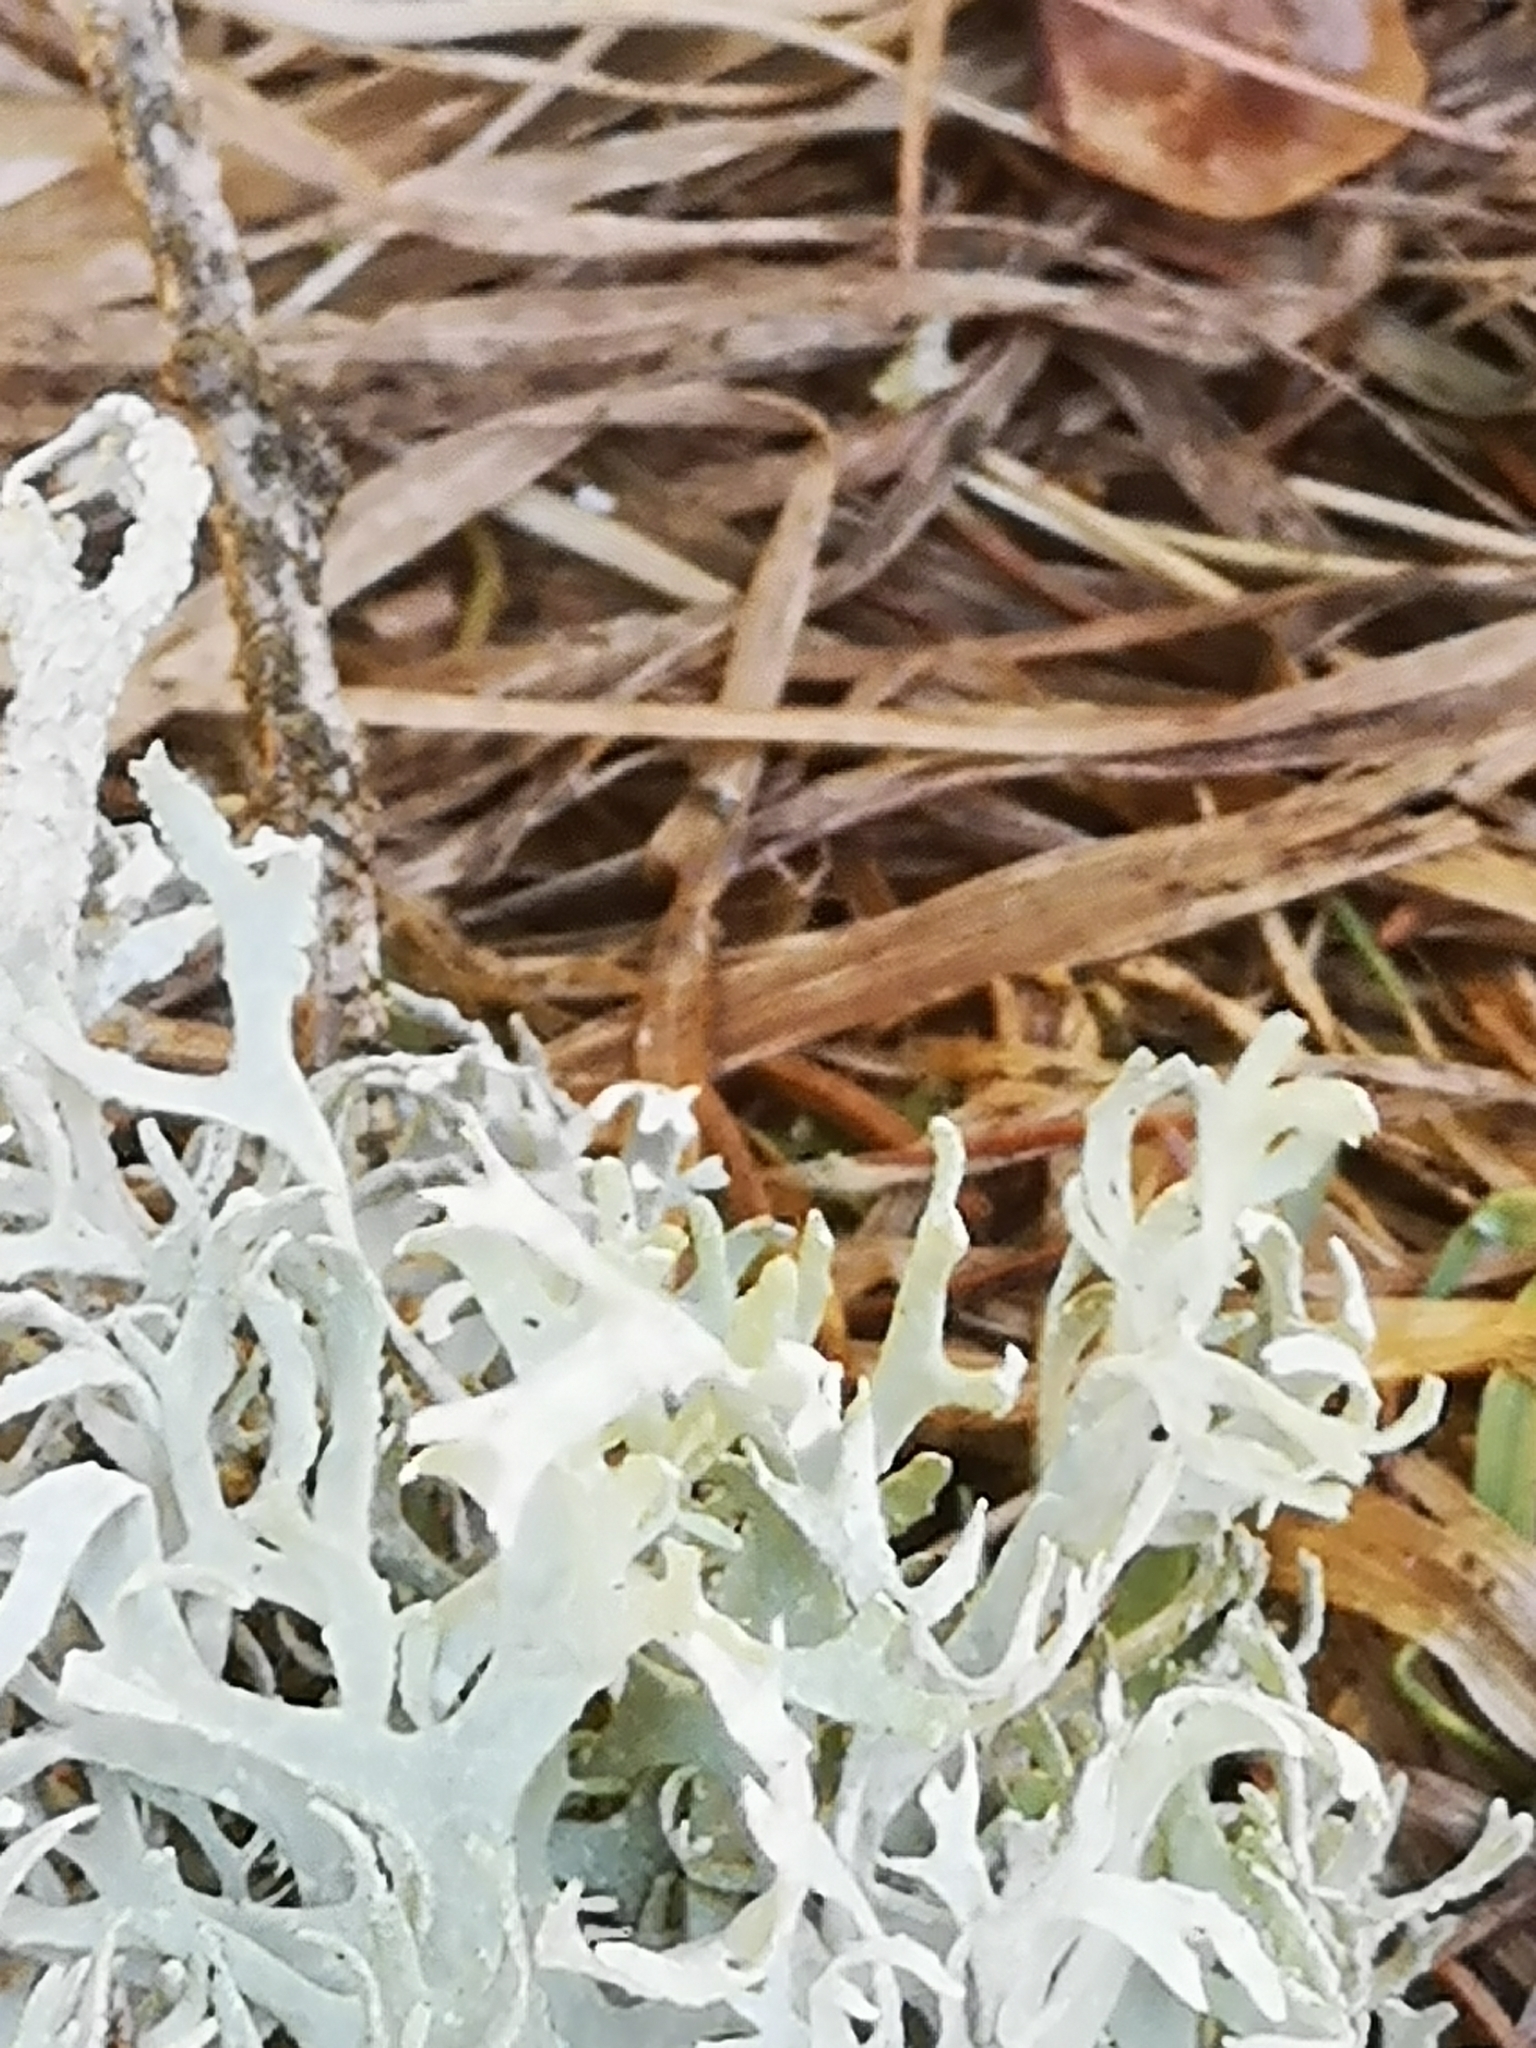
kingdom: Fungi
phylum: Ascomycota
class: Lecanoromycetes
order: Lecanorales
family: Parmeliaceae
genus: Evernia
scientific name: Evernia prunastri
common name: Oak moss
